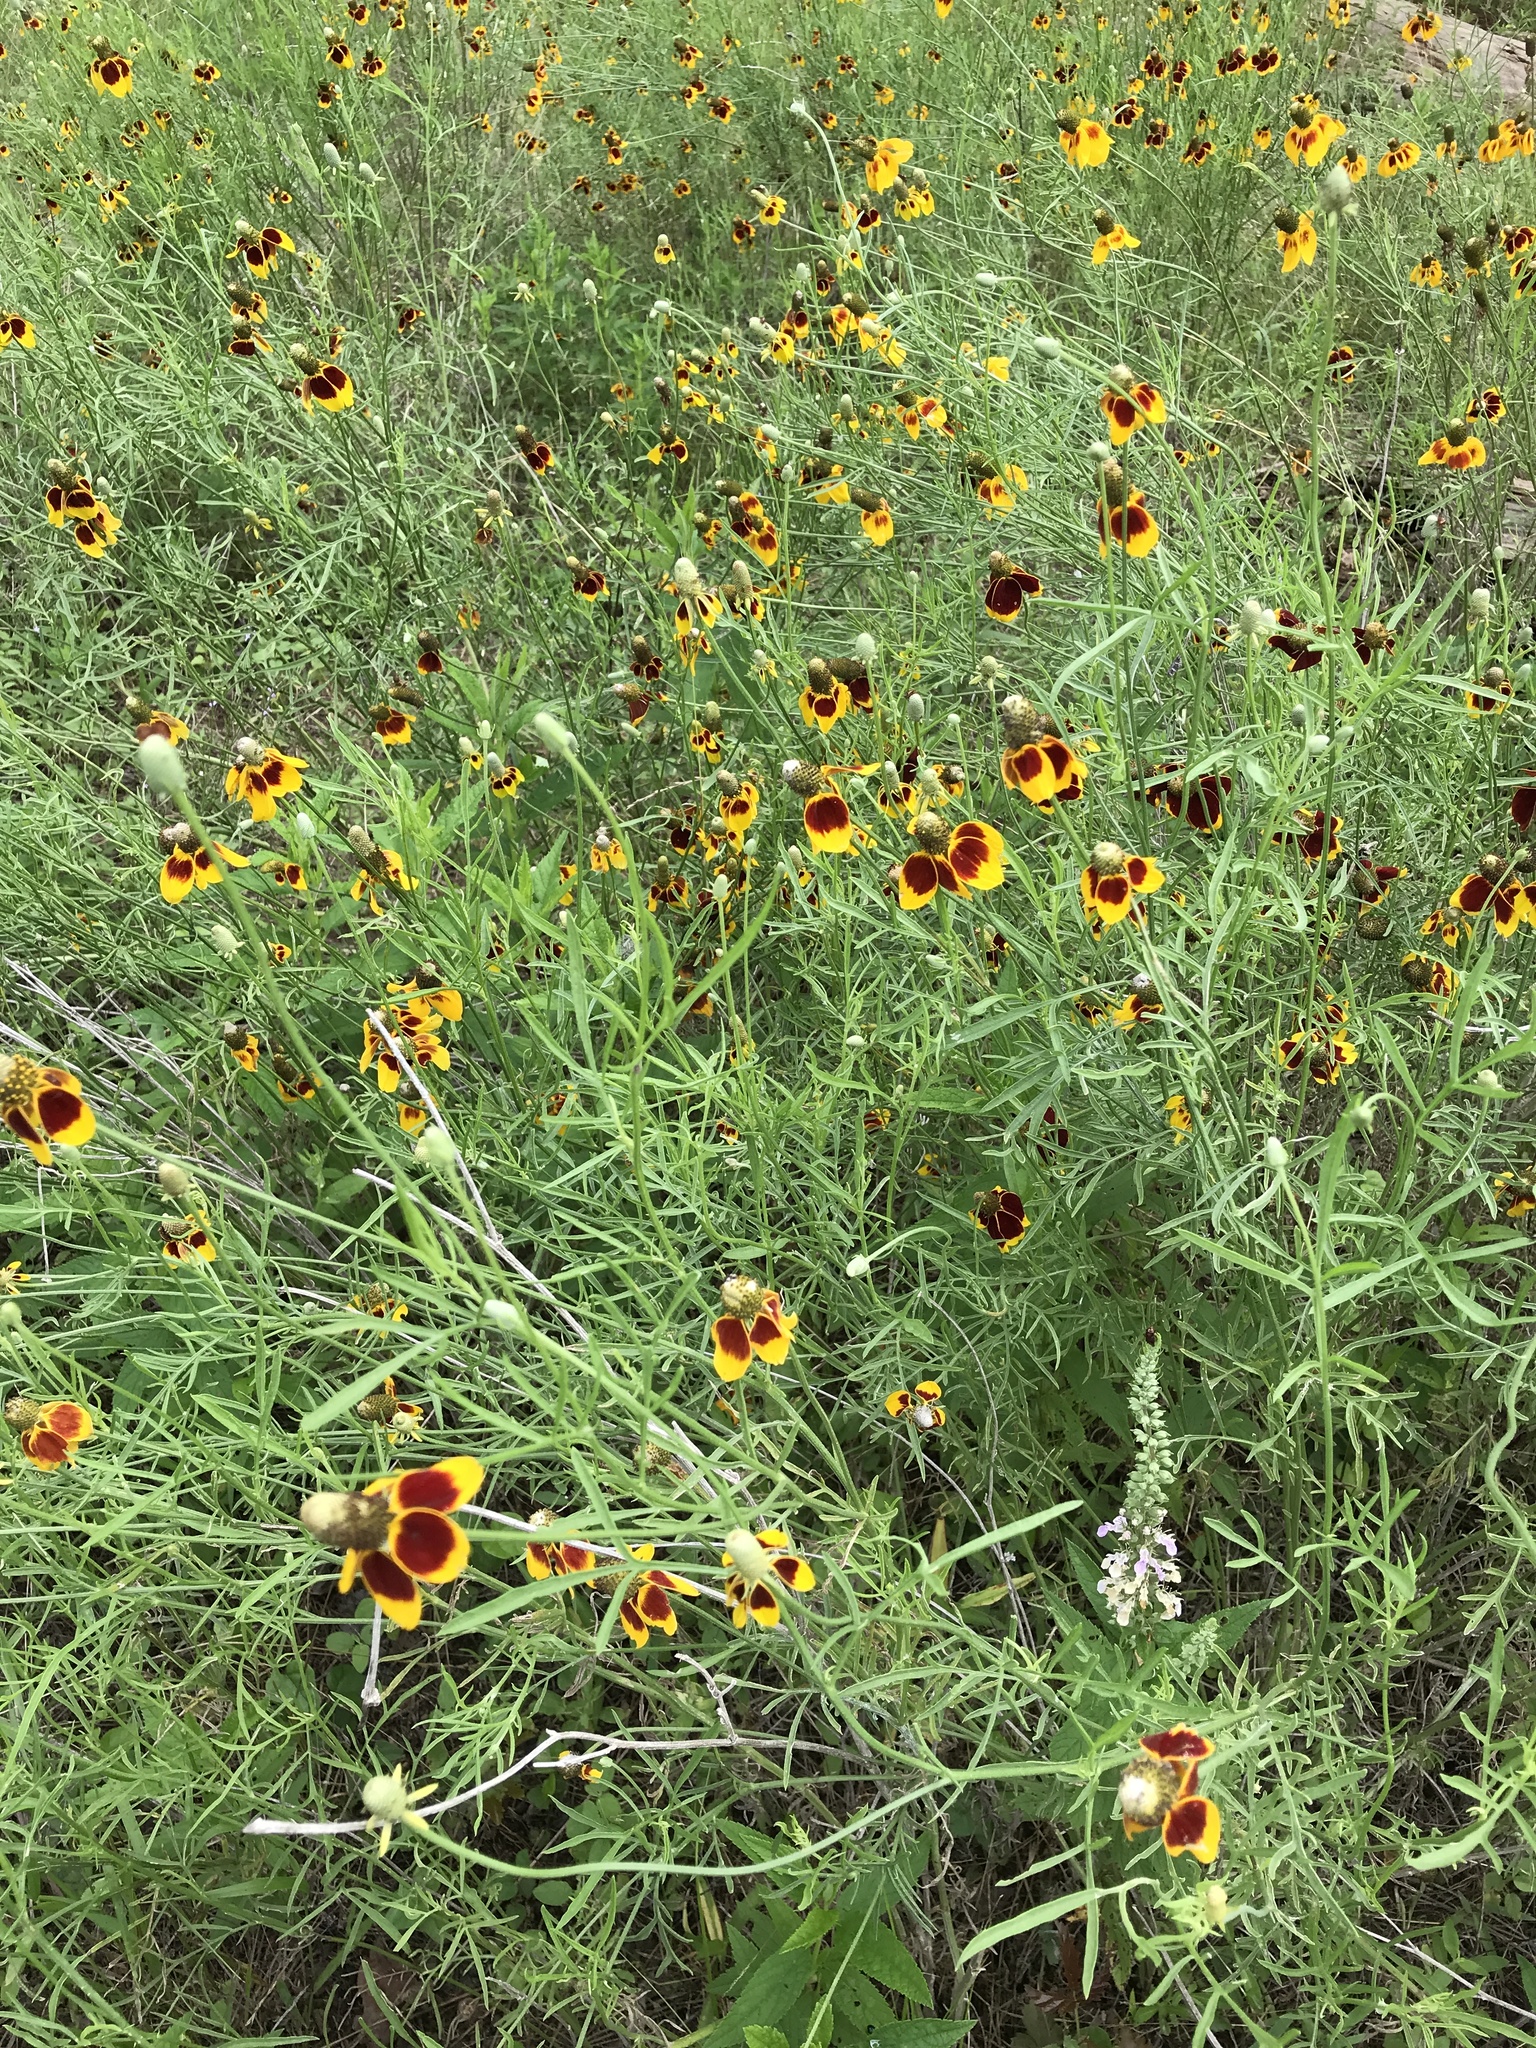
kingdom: Plantae
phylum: Tracheophyta
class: Magnoliopsida
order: Asterales
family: Asteraceae
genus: Ratibida
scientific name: Ratibida columnifera
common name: Prairie coneflower
